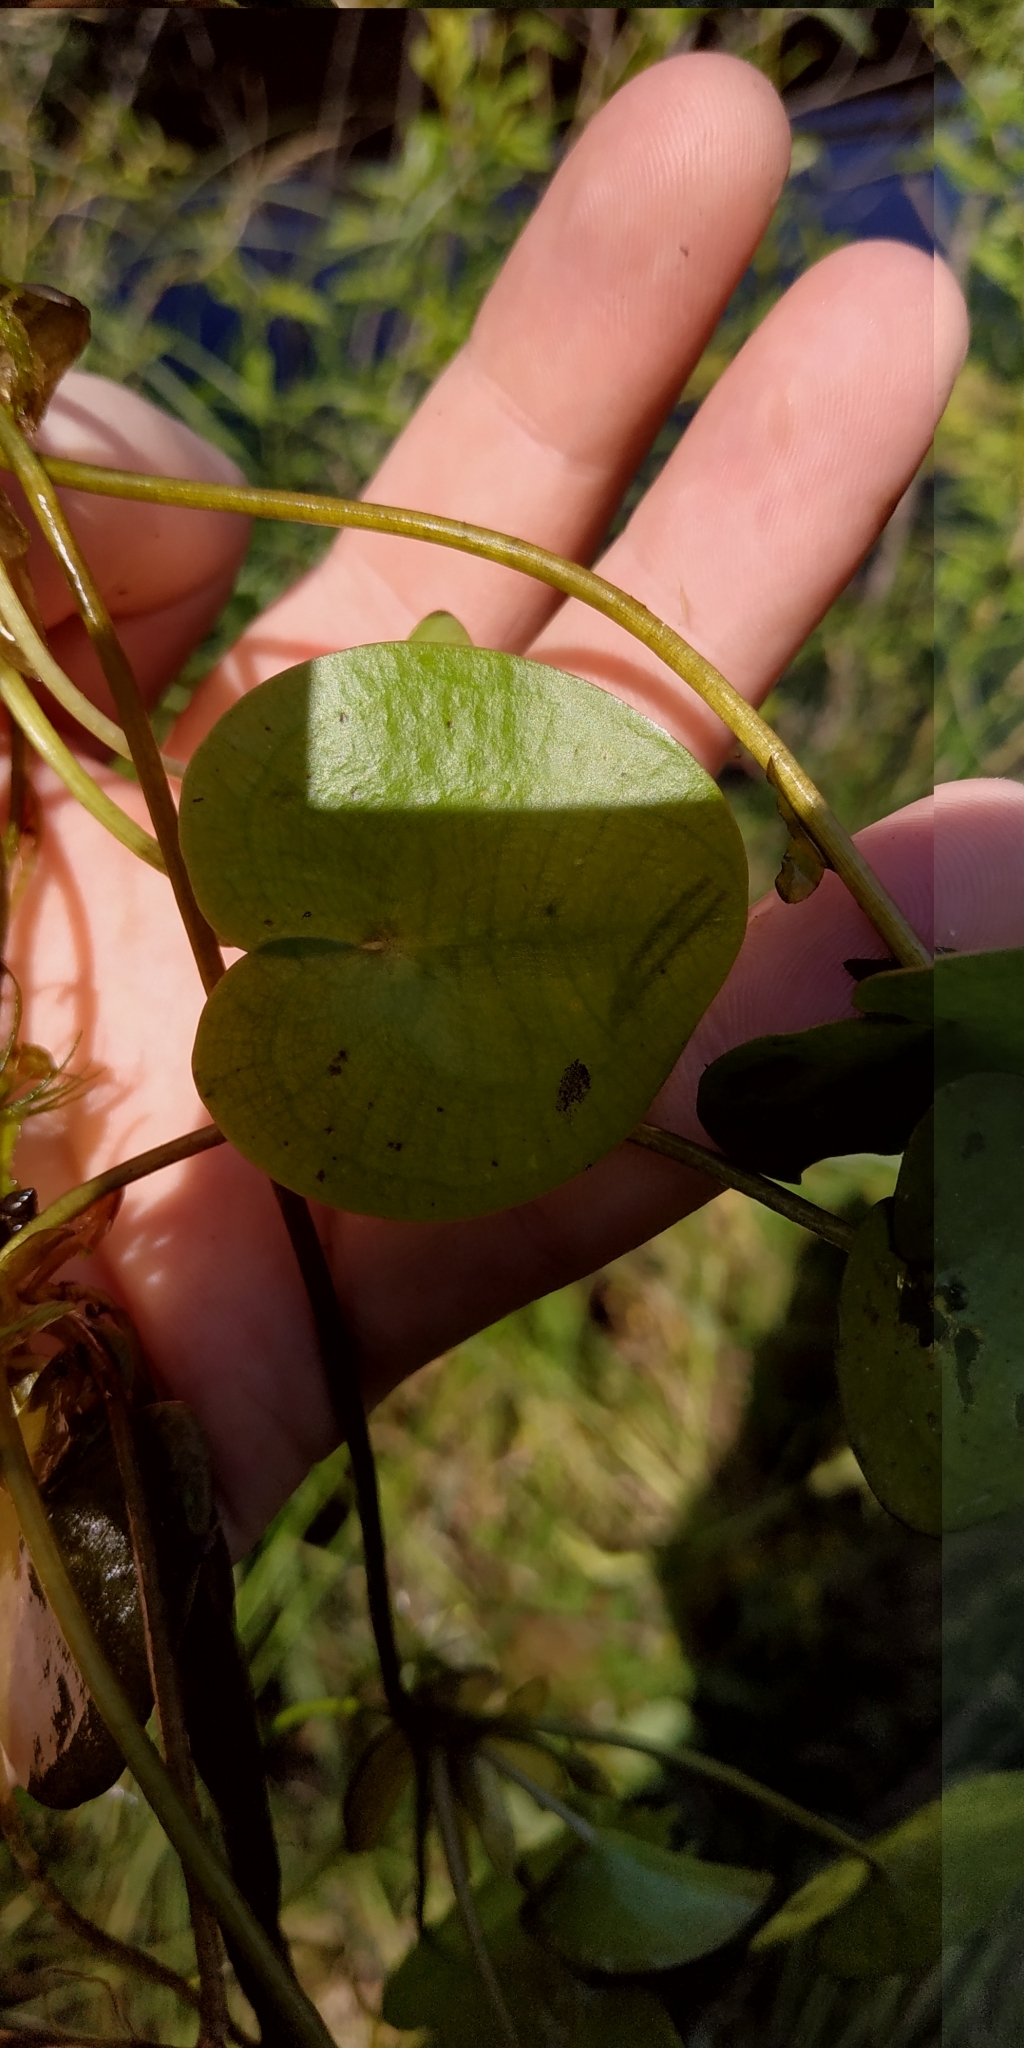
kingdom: Plantae
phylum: Tracheophyta
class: Liliopsida
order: Alismatales
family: Hydrocharitaceae
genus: Hydrocharis
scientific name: Hydrocharis morsus-ranae
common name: Frogbit
